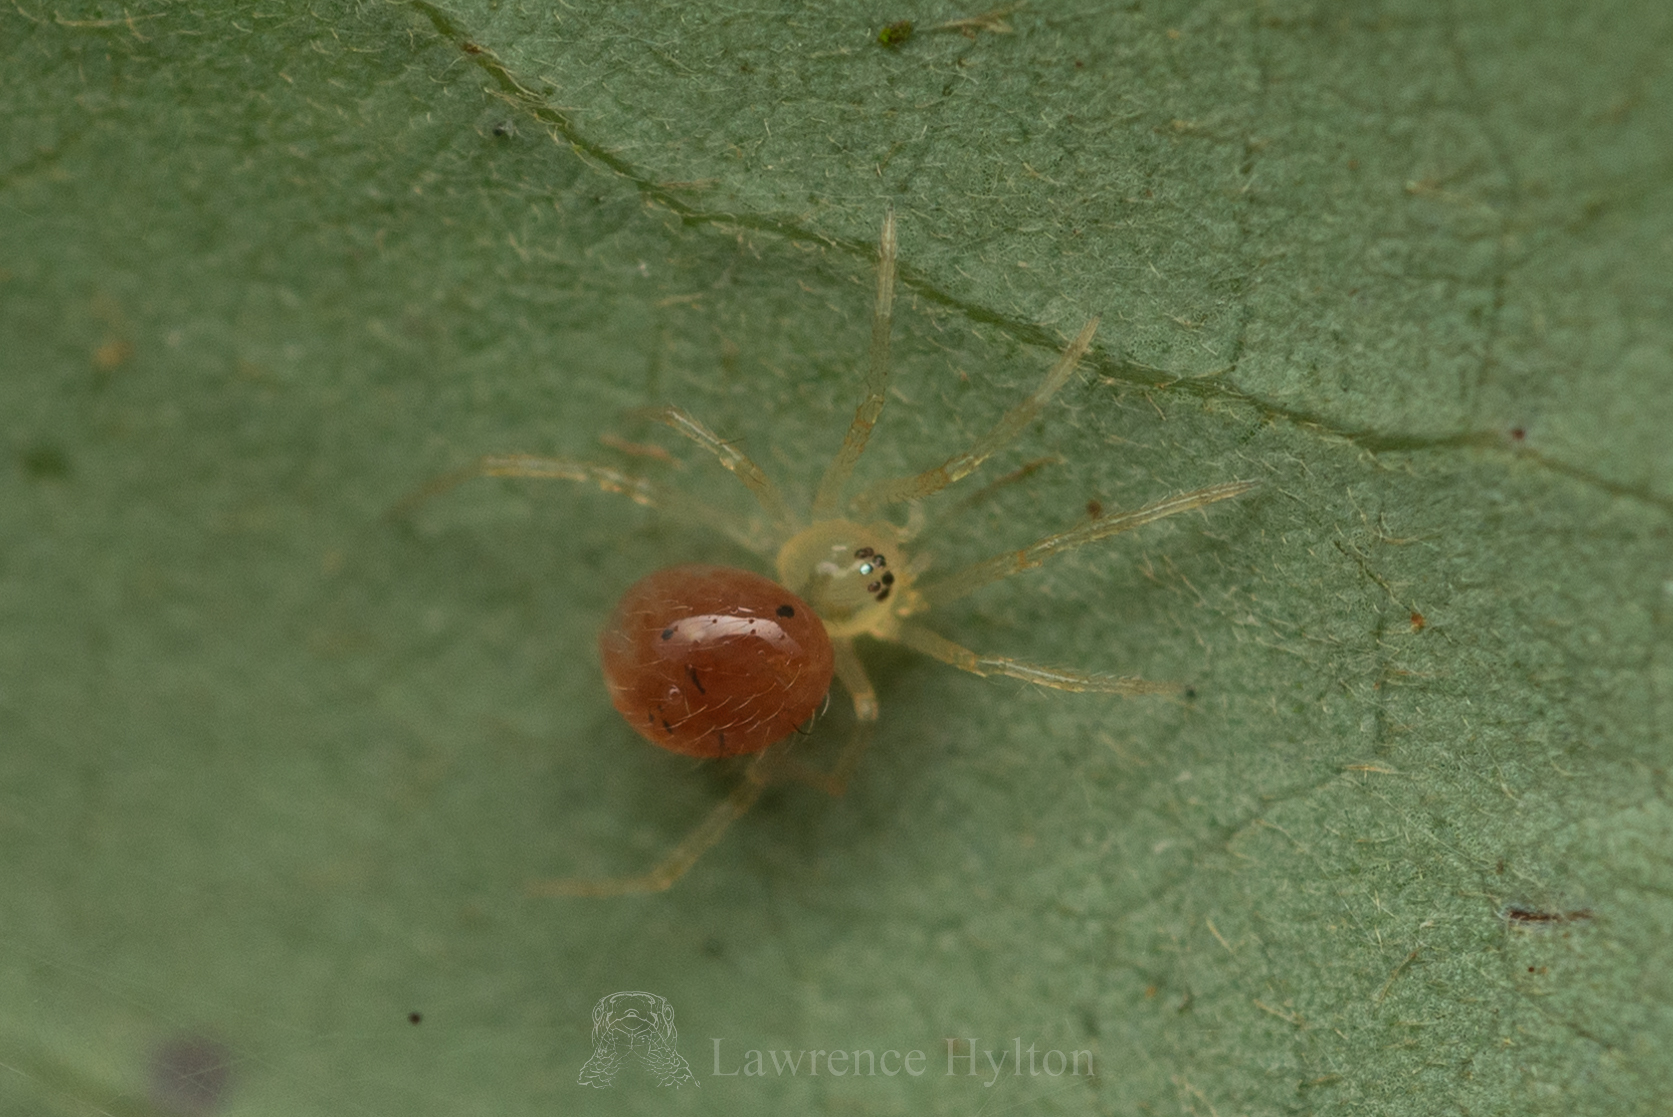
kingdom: Animalia
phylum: Arthropoda
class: Arachnida
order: Araneae
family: Theridiidae
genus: Phycosoma
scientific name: Phycosoma digitula
